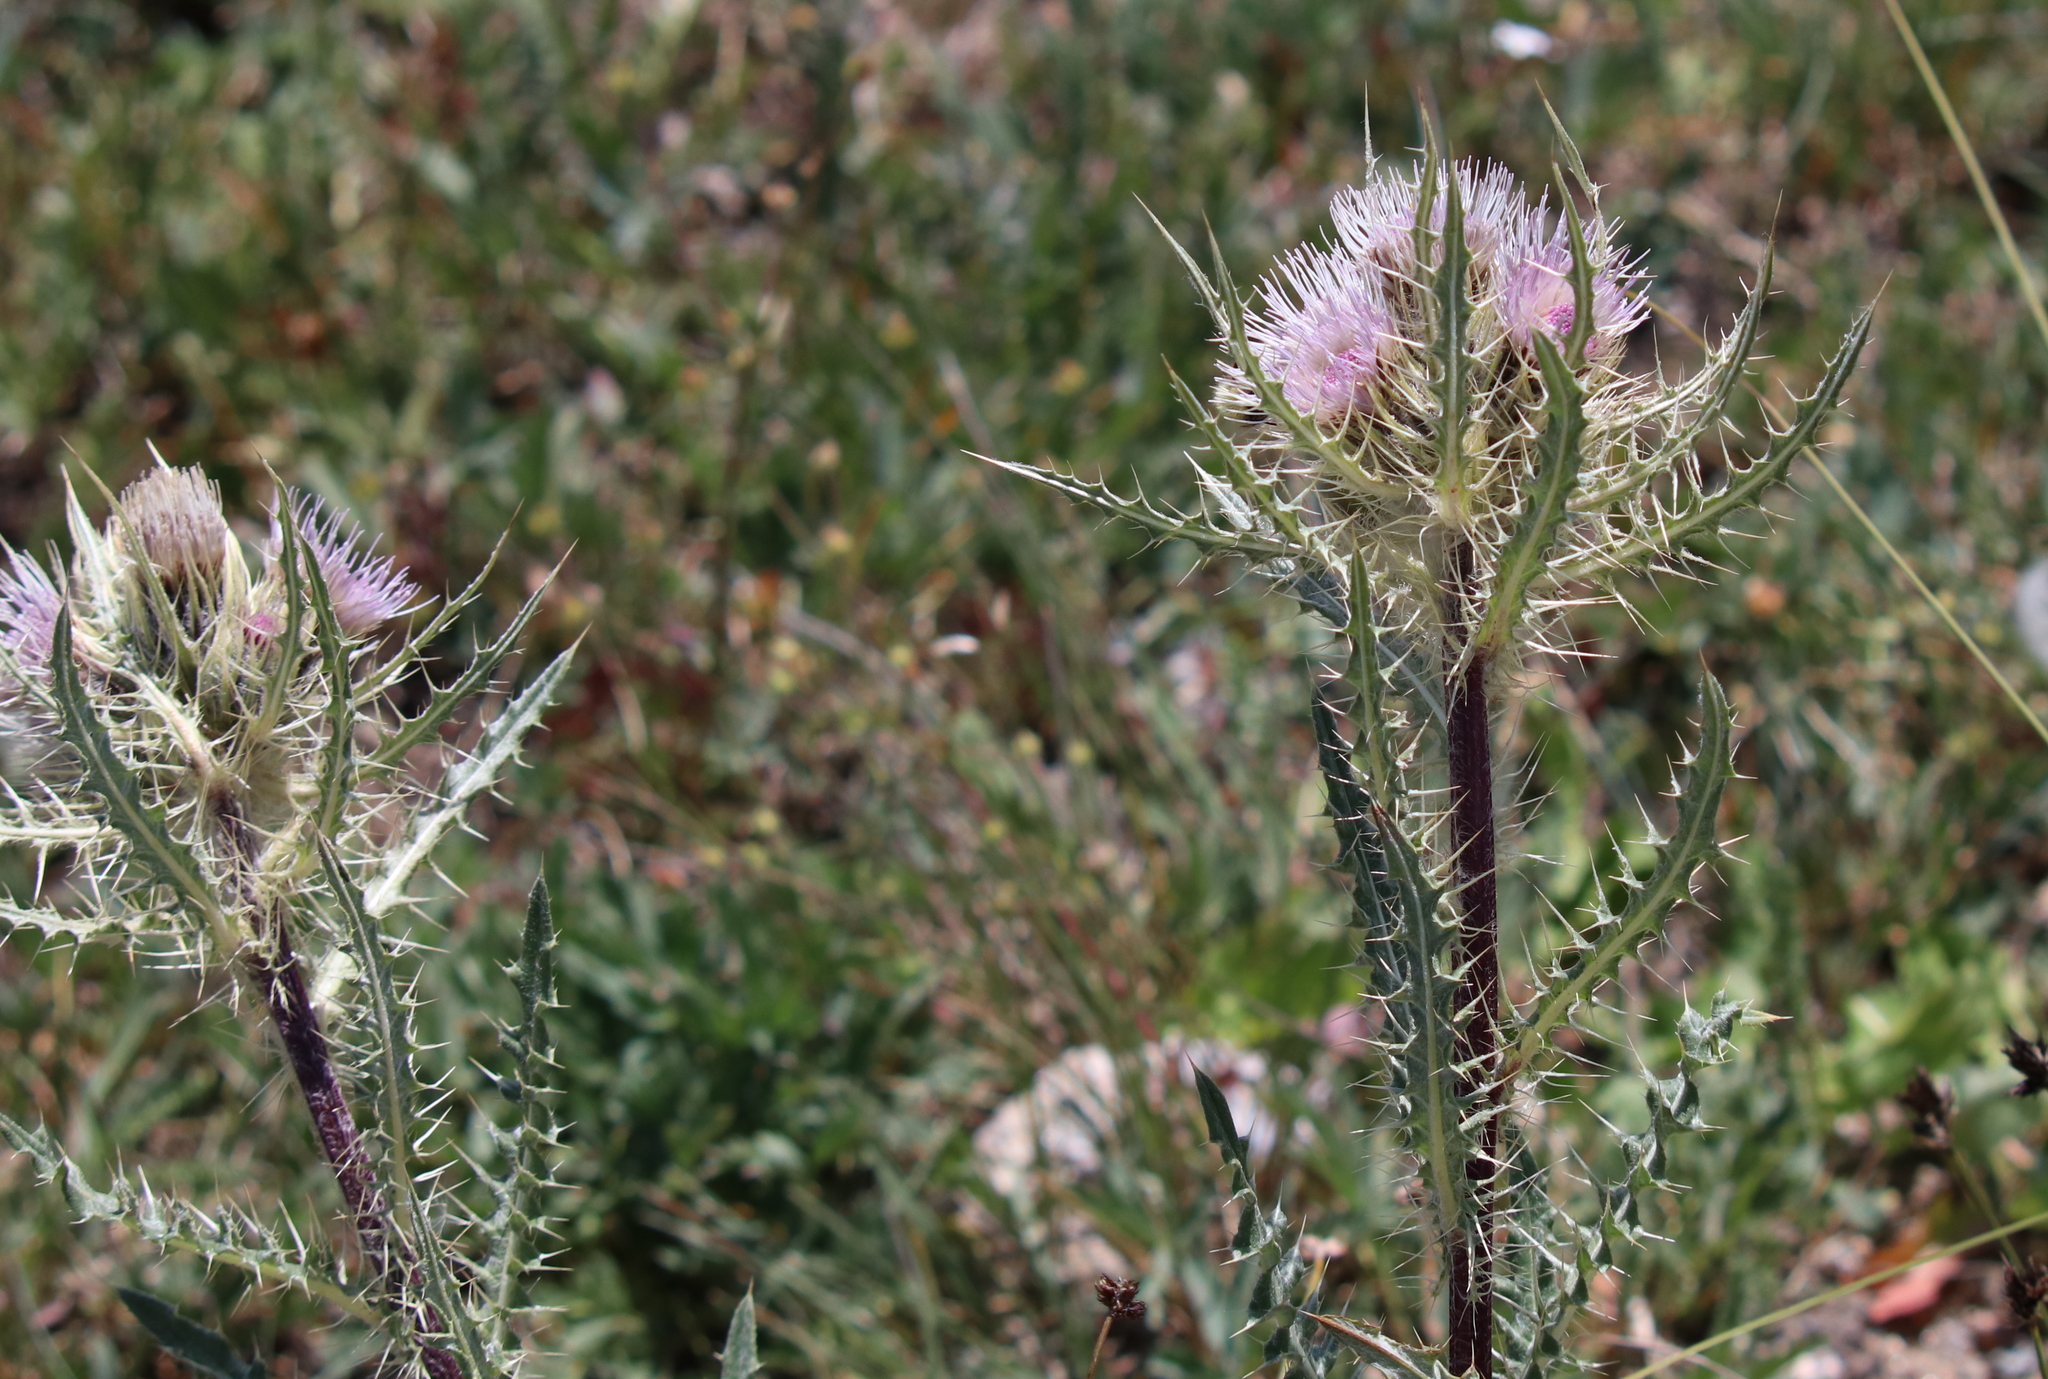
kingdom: Plantae
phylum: Tracheophyta
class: Magnoliopsida
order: Asterales
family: Asteraceae
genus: Cirsium
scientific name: Cirsium griseum
